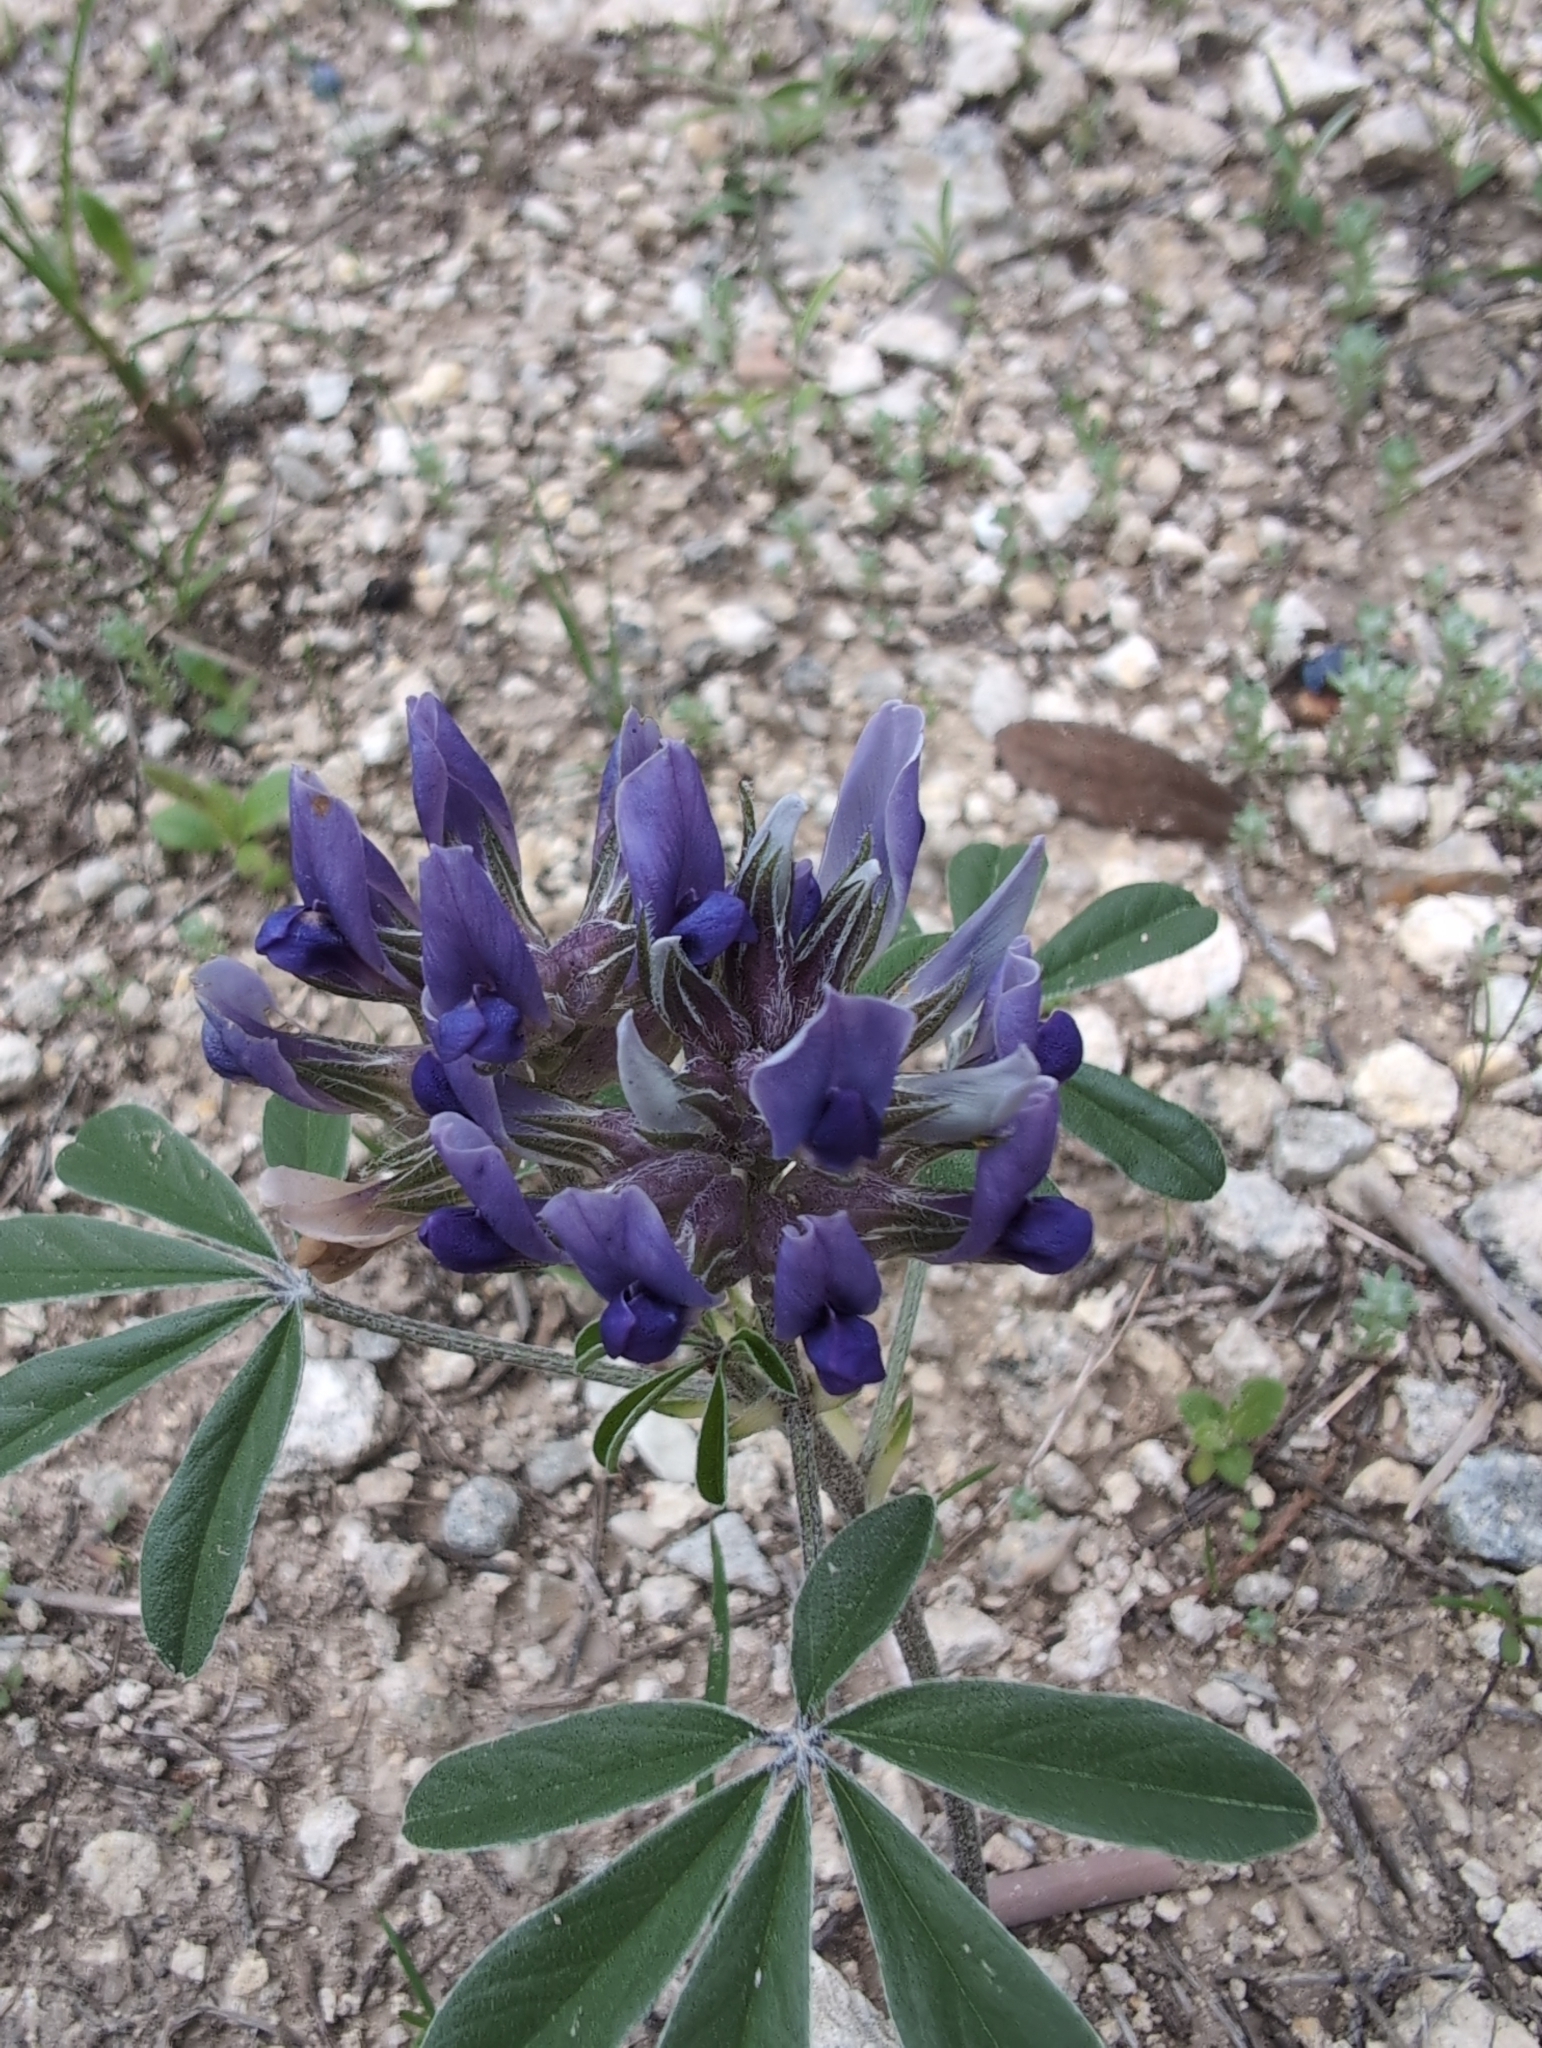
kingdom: Plantae
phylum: Tracheophyta
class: Magnoliopsida
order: Fabales
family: Fabaceae
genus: Pediomelum
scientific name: Pediomelum latestipulatum
